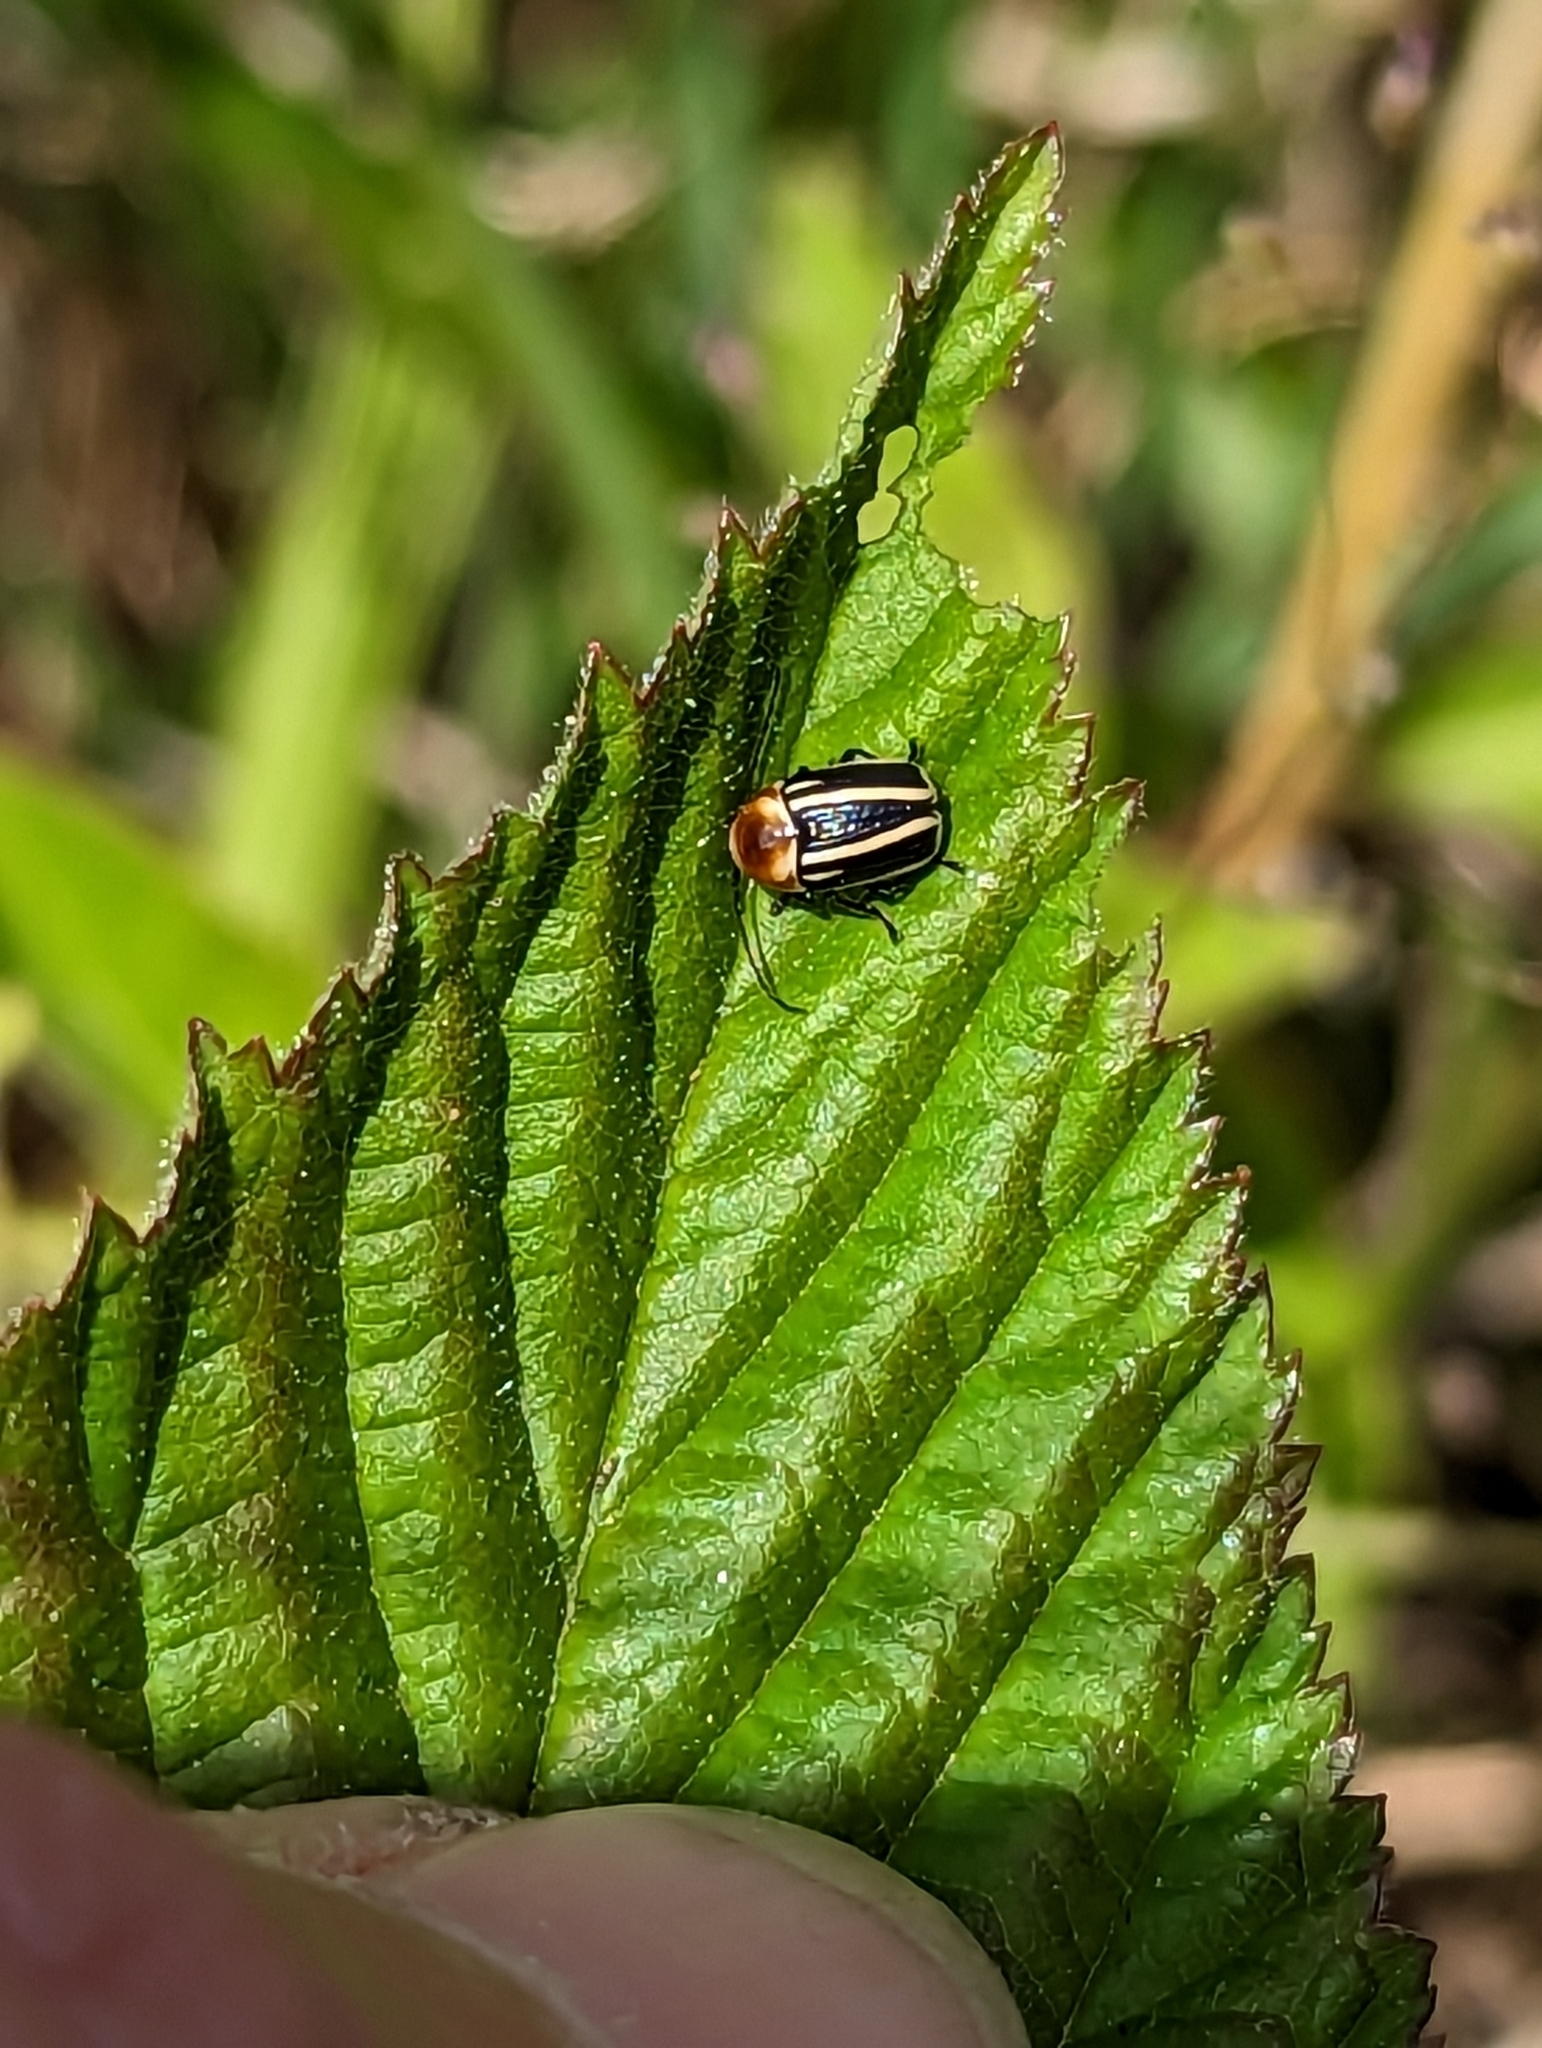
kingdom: Animalia
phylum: Arthropoda
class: Insecta
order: Coleoptera
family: Chrysomelidae
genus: Bassareus
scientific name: Bassareus lituratus
